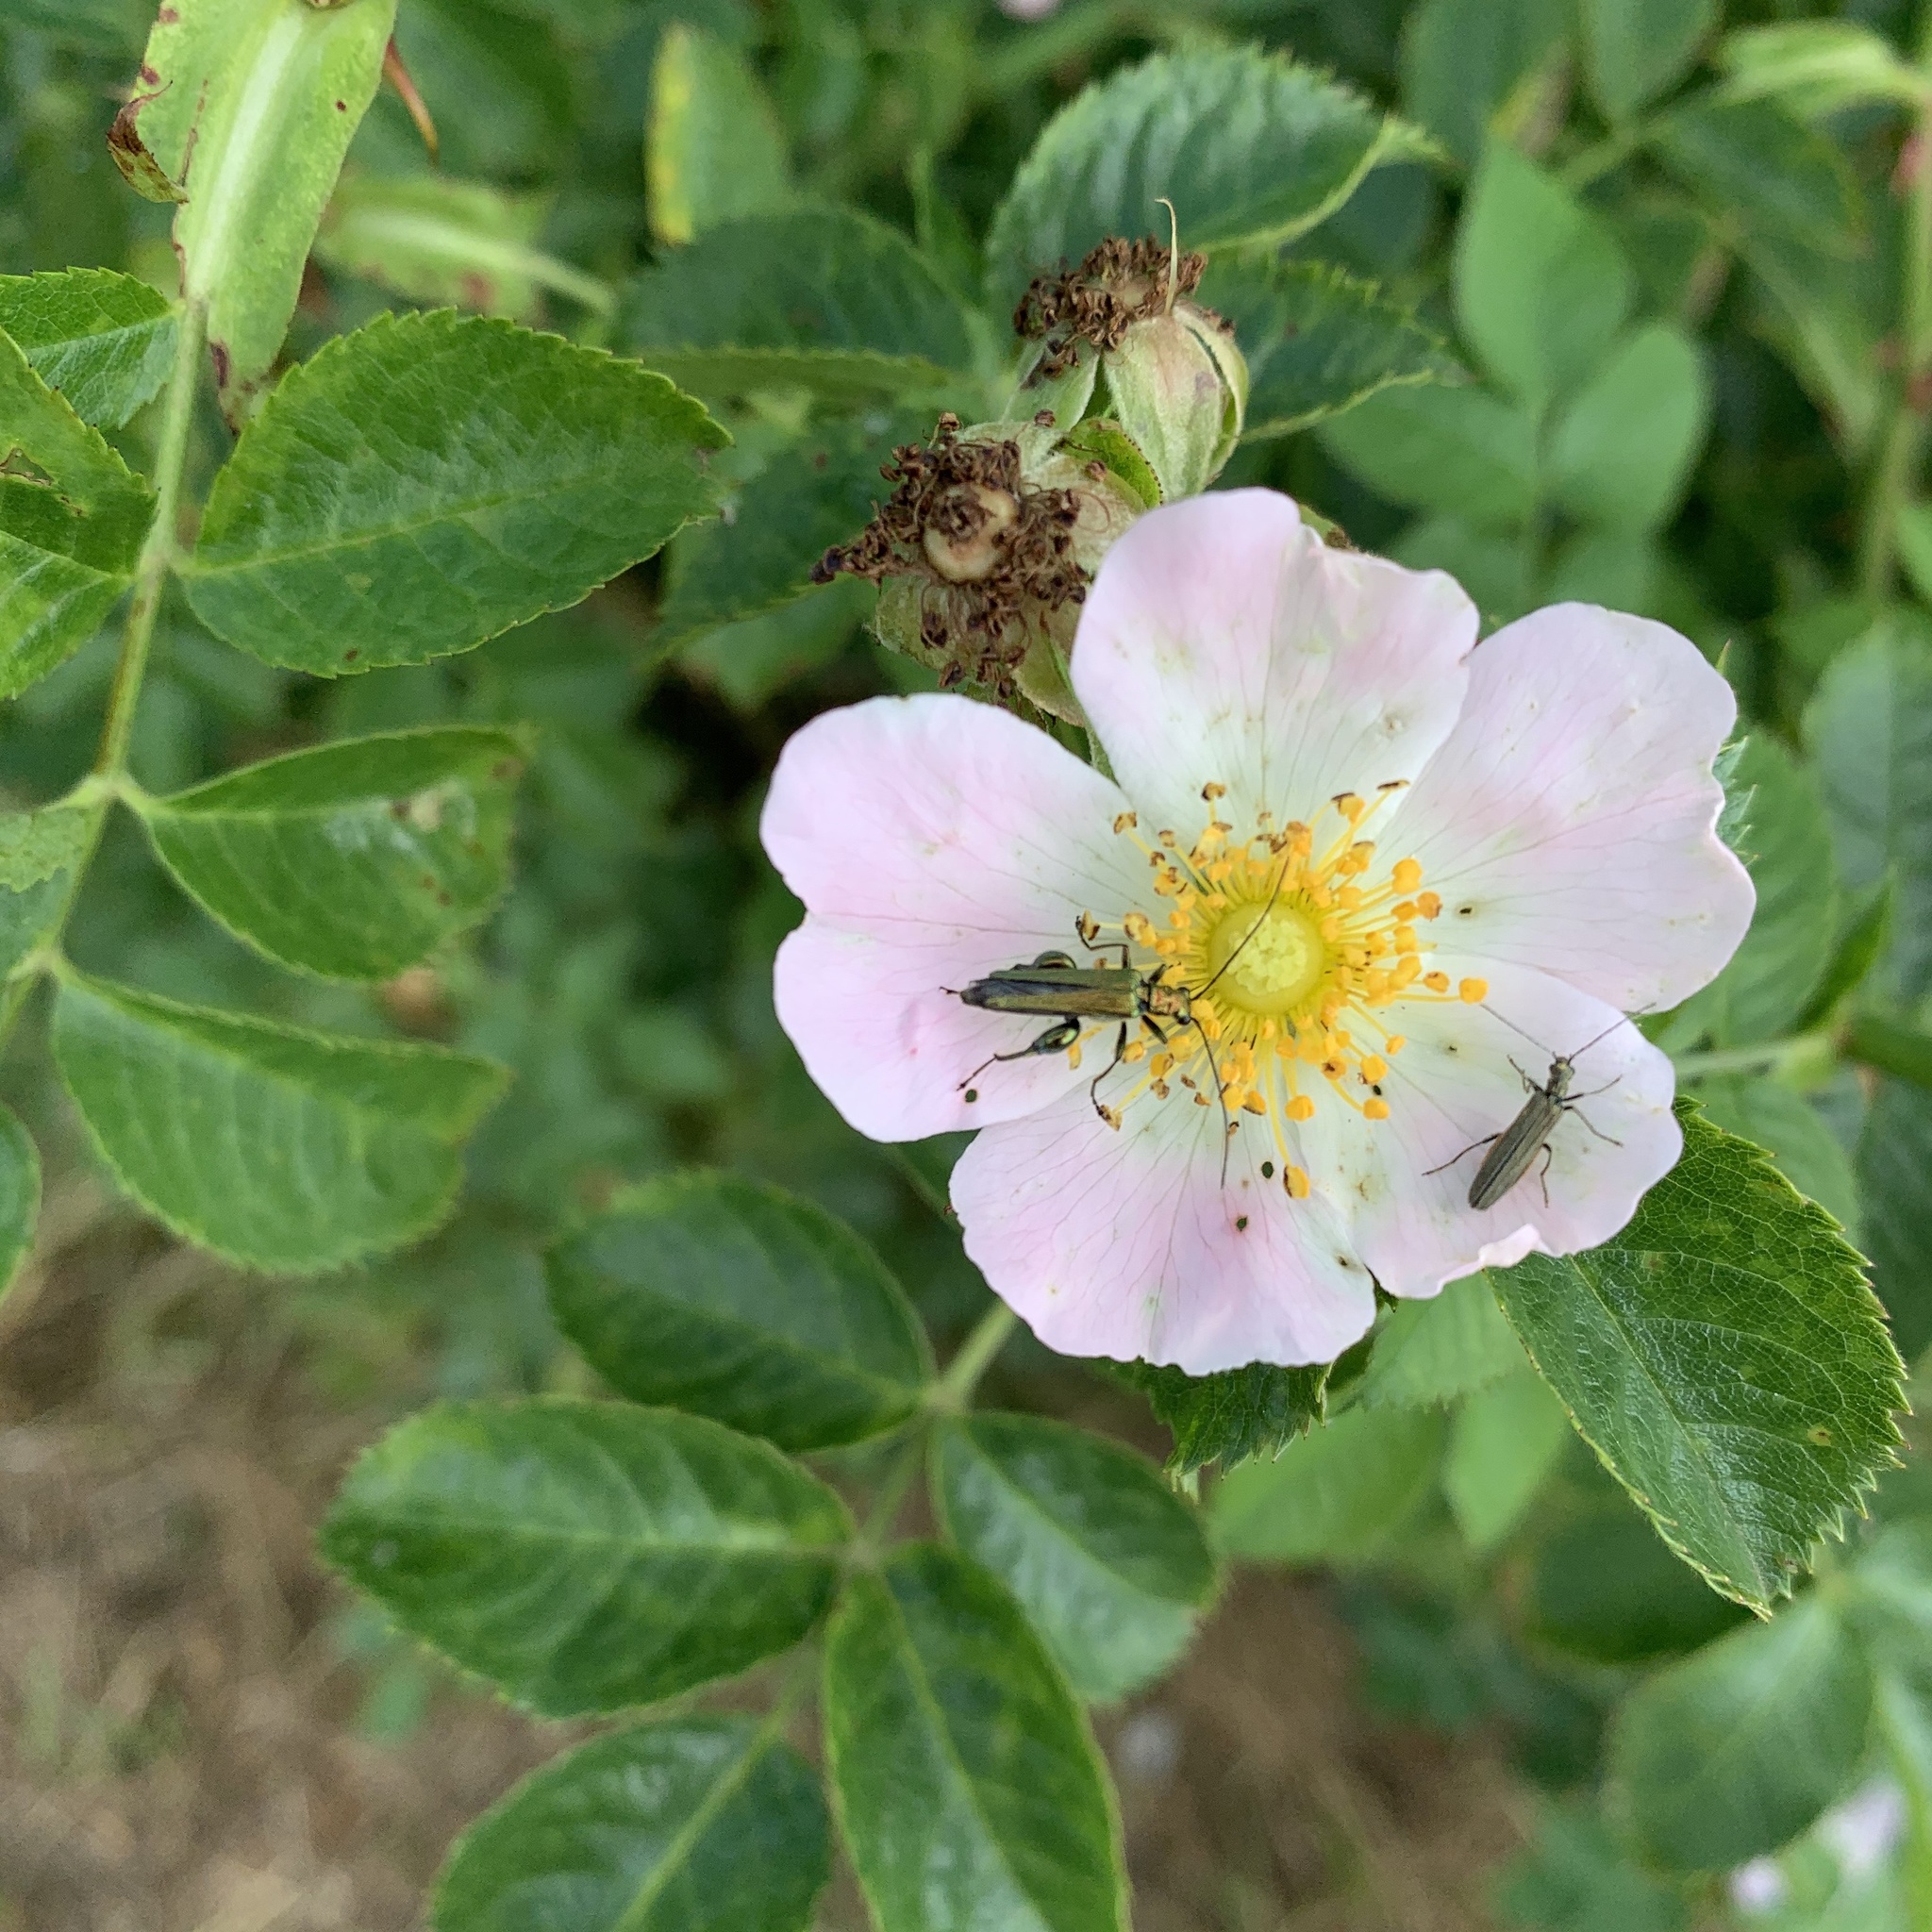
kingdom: Animalia
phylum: Arthropoda
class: Insecta
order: Coleoptera
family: Oedemeridae
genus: Oedemera
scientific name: Oedemera nobilis
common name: Swollen-thighed beetle
